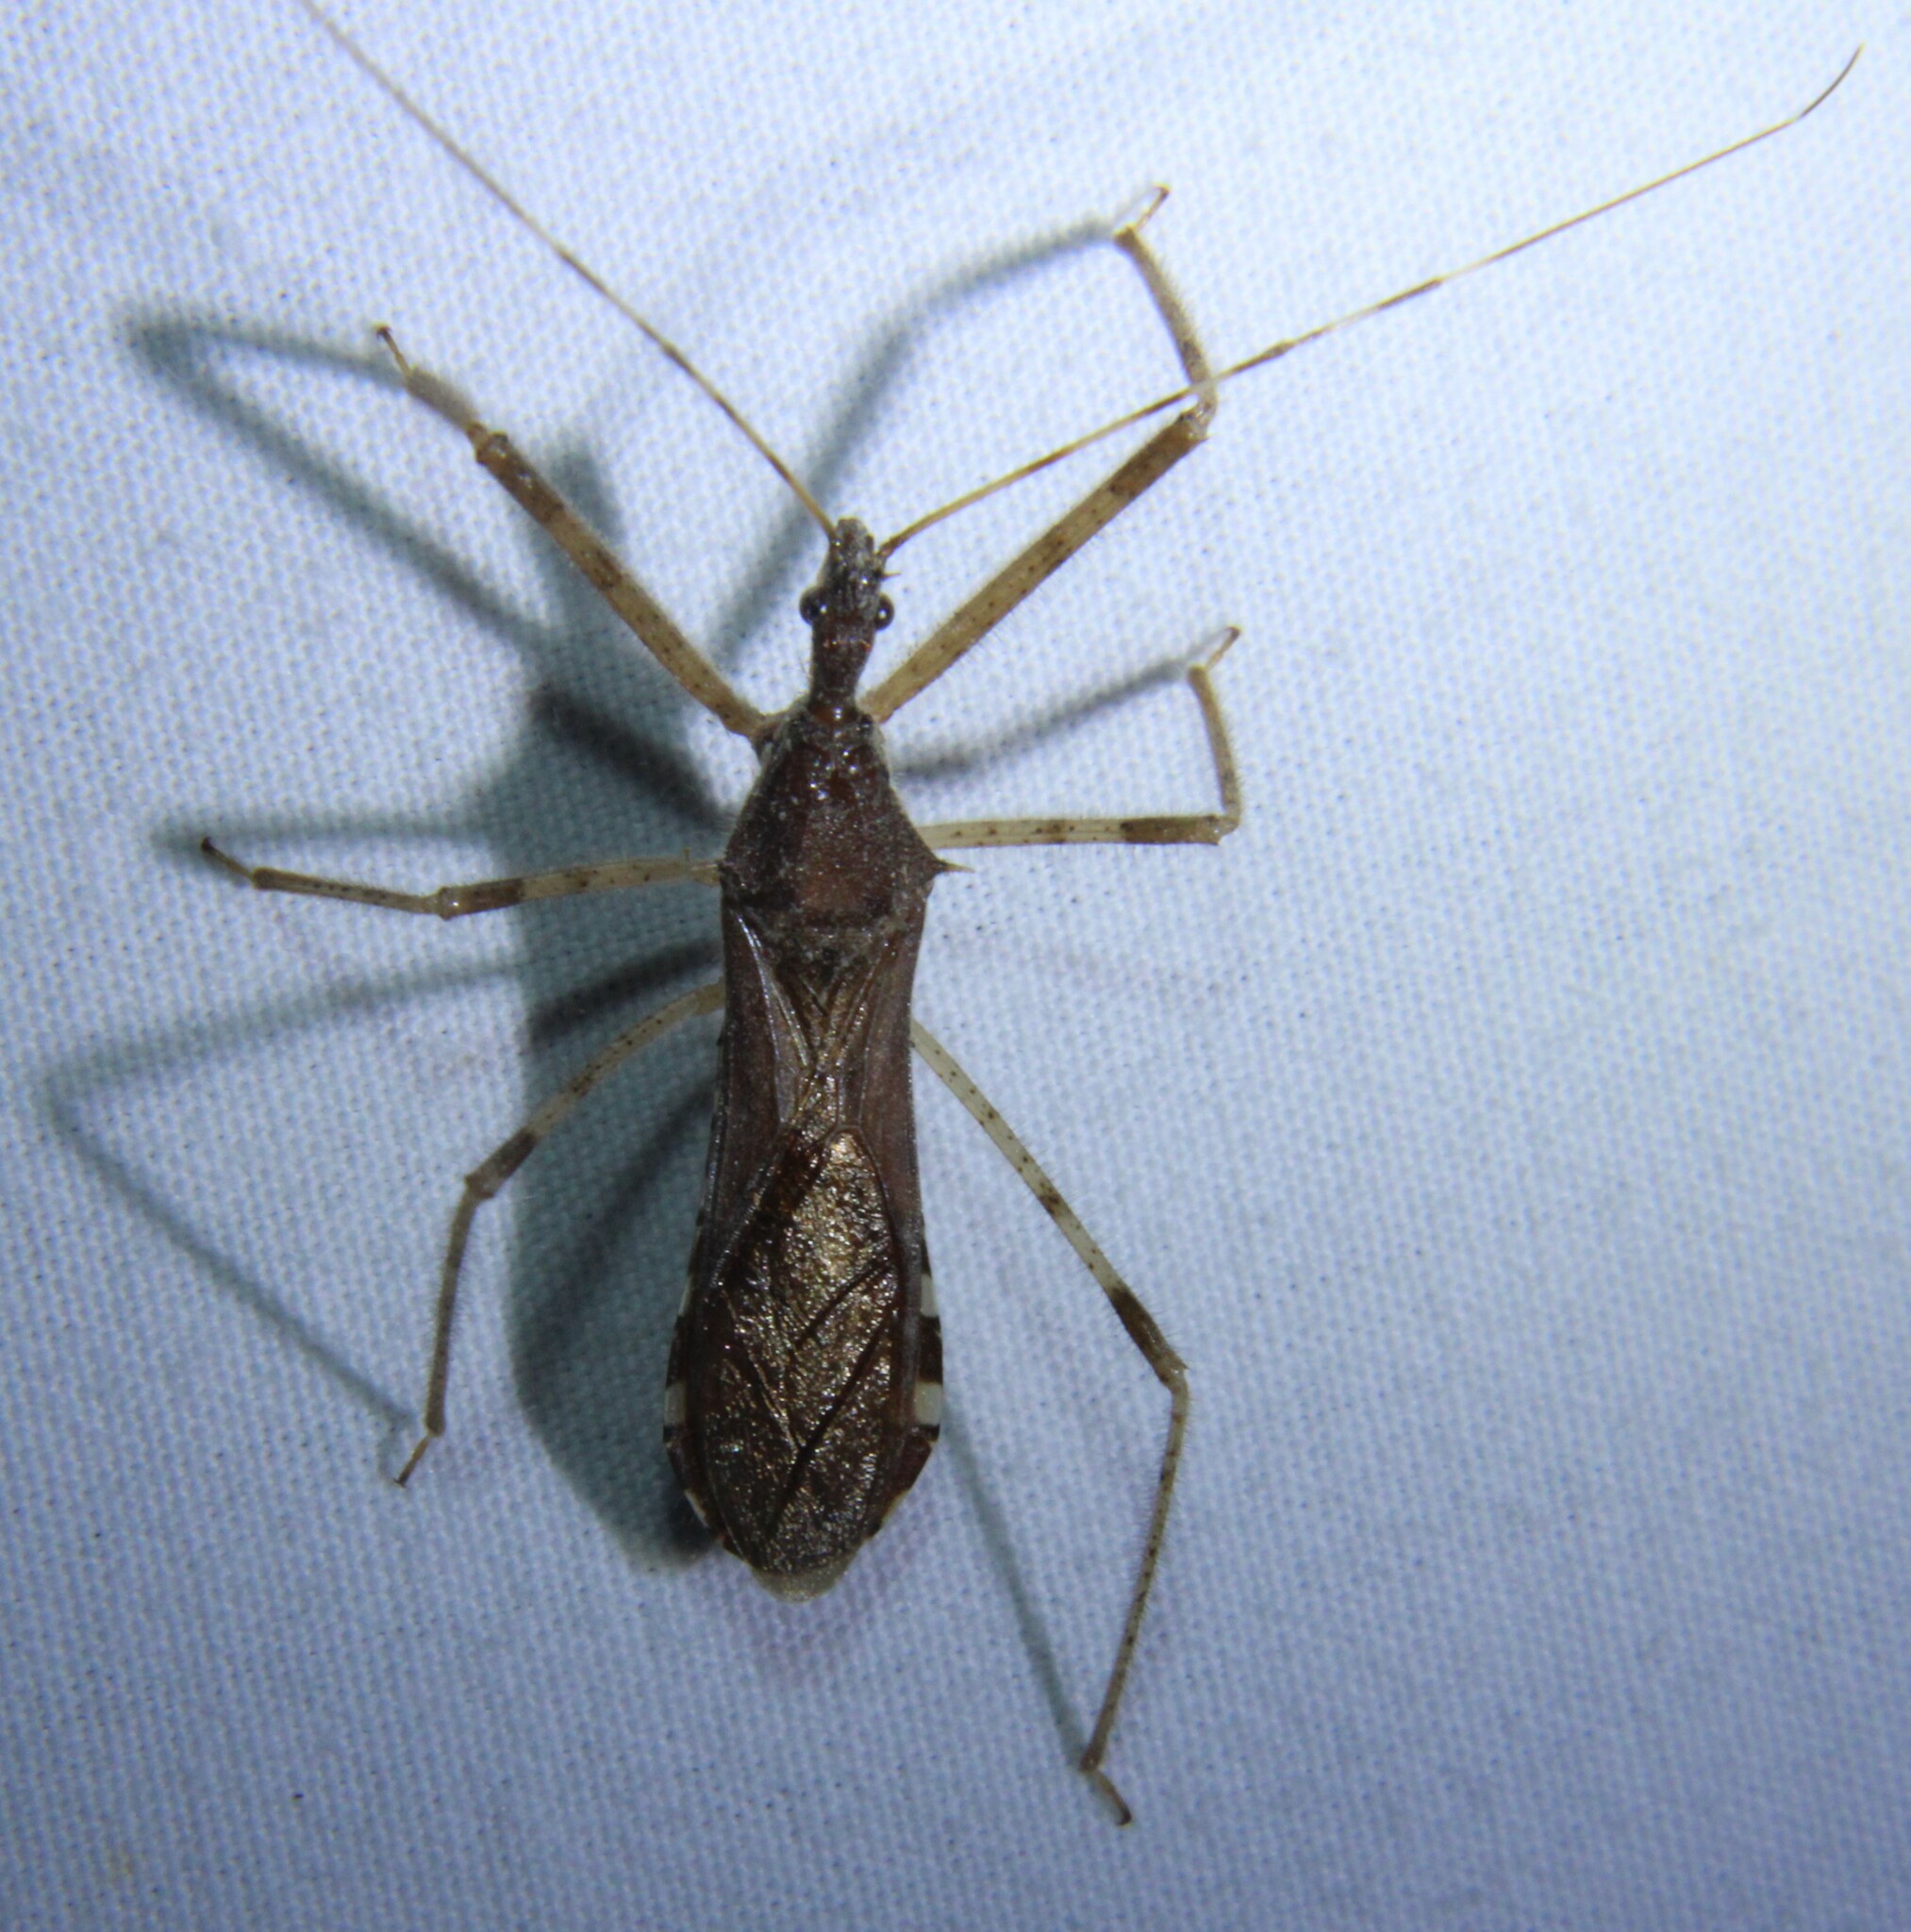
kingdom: Animalia
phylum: Arthropoda
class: Insecta
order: Hemiptera
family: Reduviidae
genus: Rocconota
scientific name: Rocconota annulicornis
